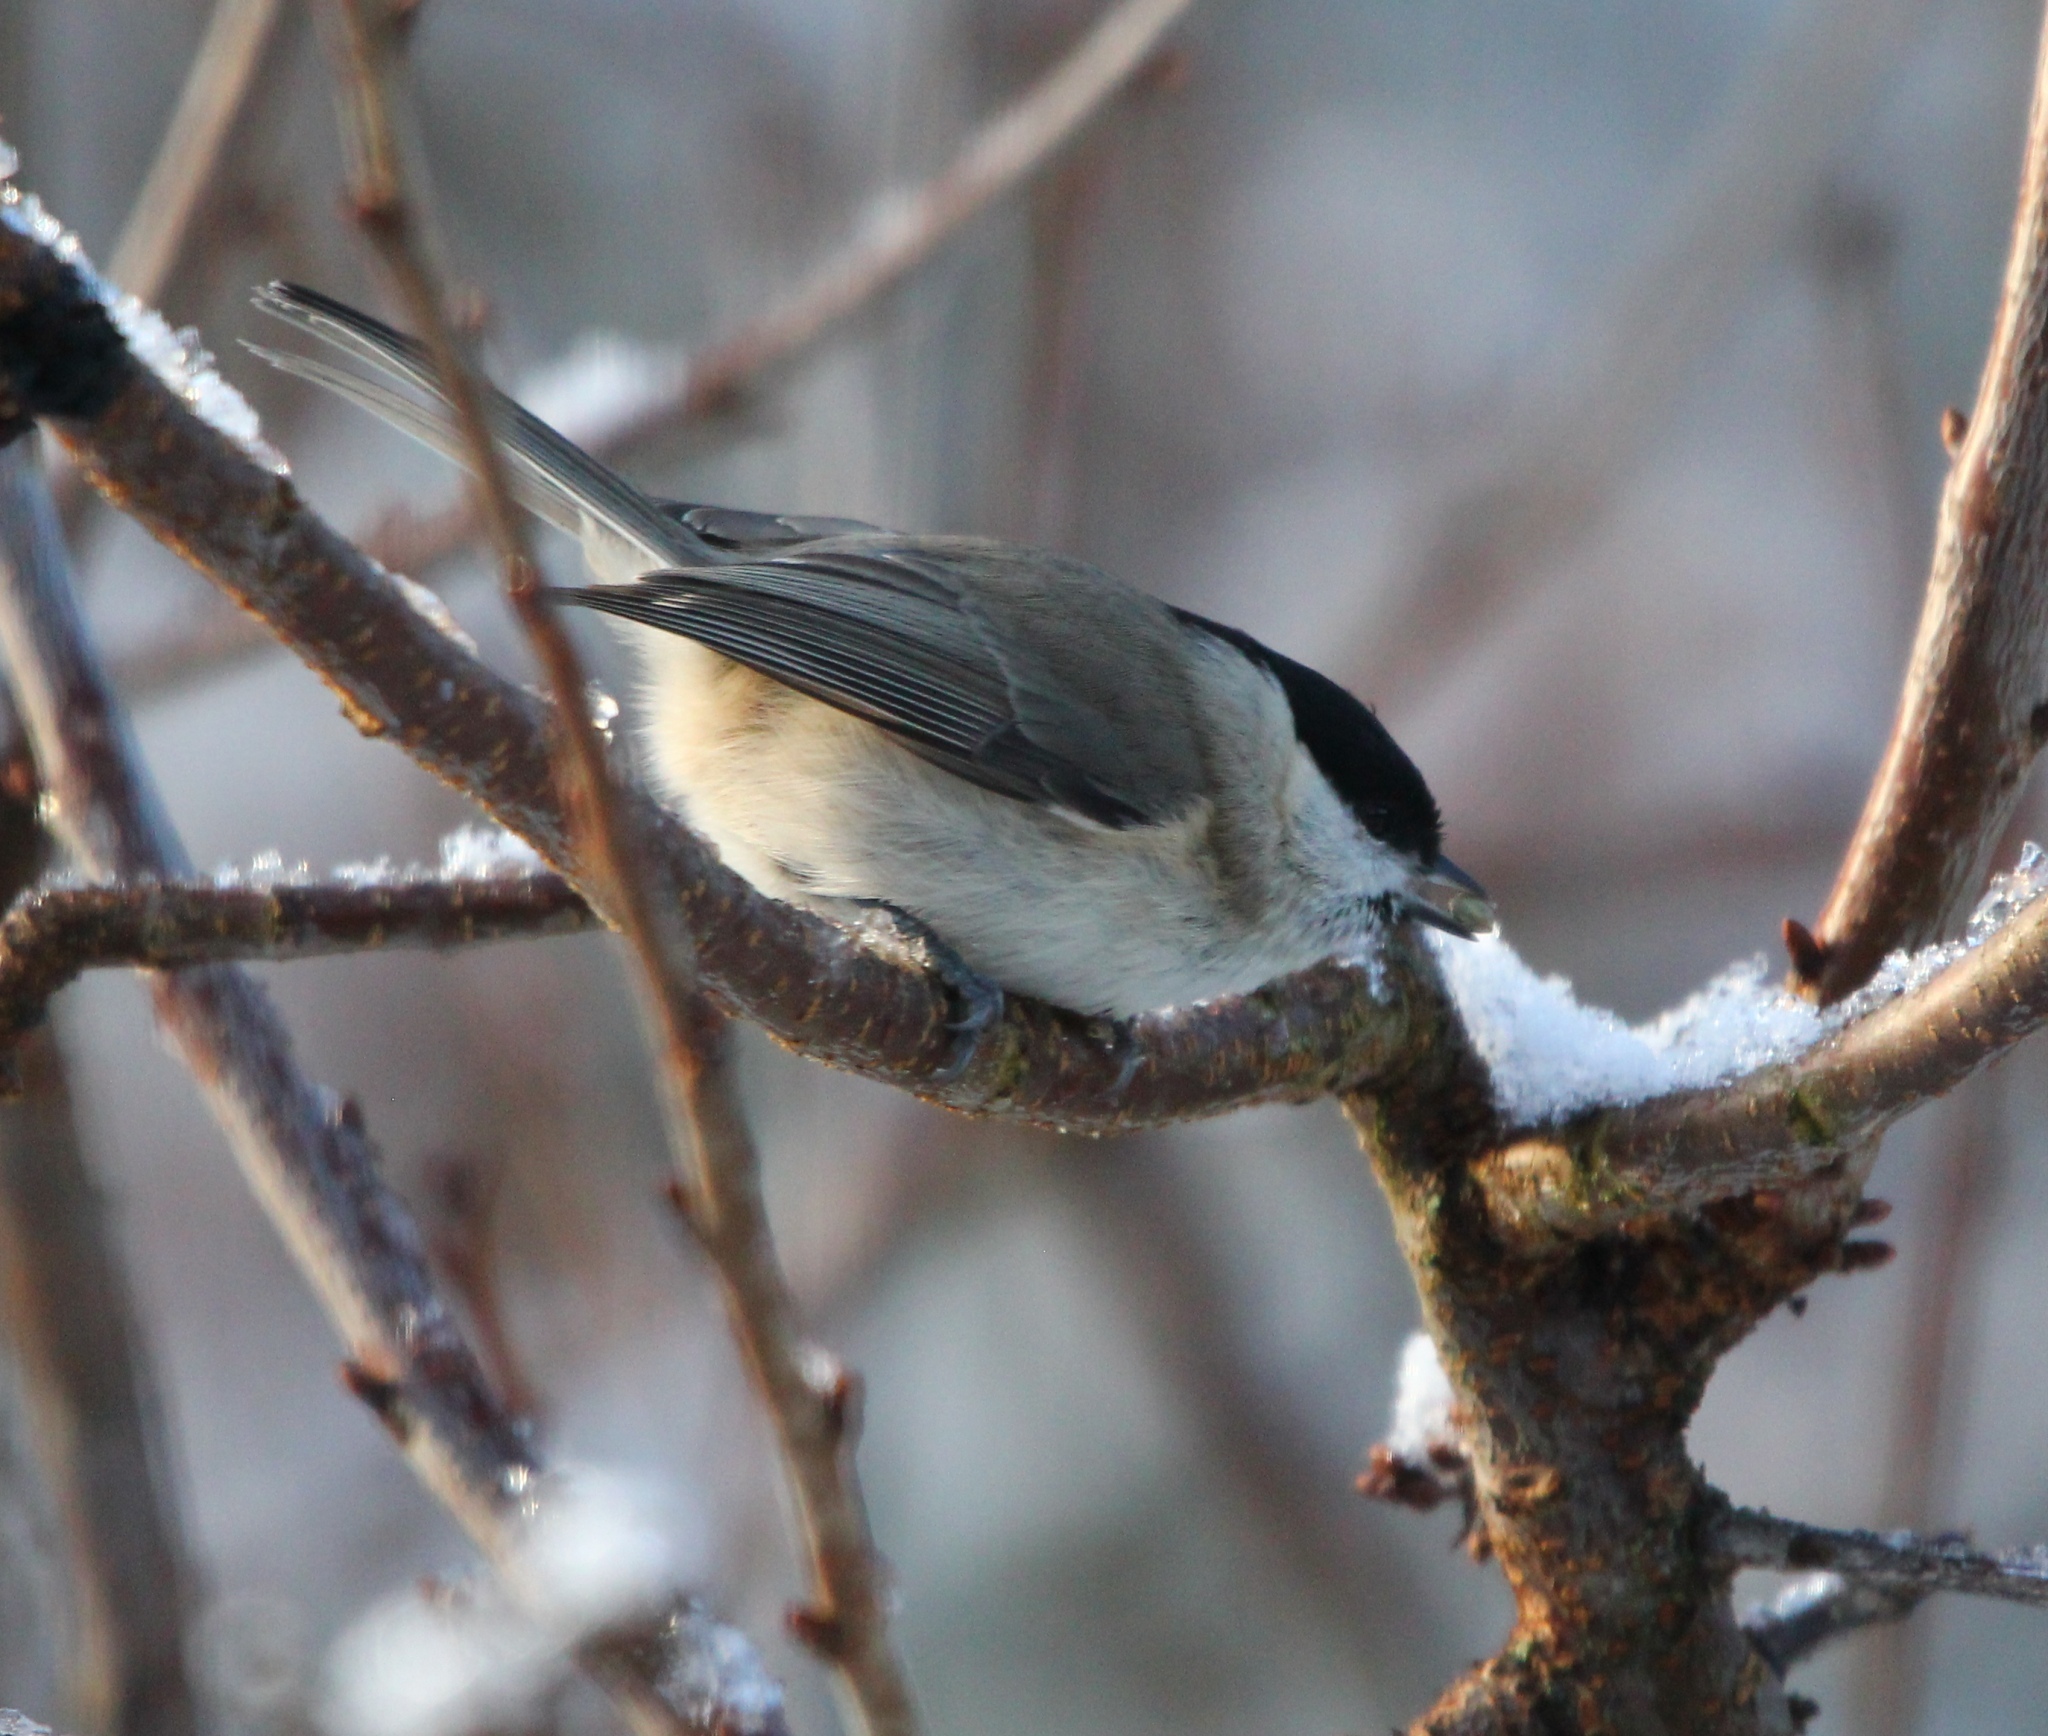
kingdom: Animalia
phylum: Chordata
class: Aves
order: Passeriformes
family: Paridae
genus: Poecile
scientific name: Poecile palustris
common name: Marsh tit
